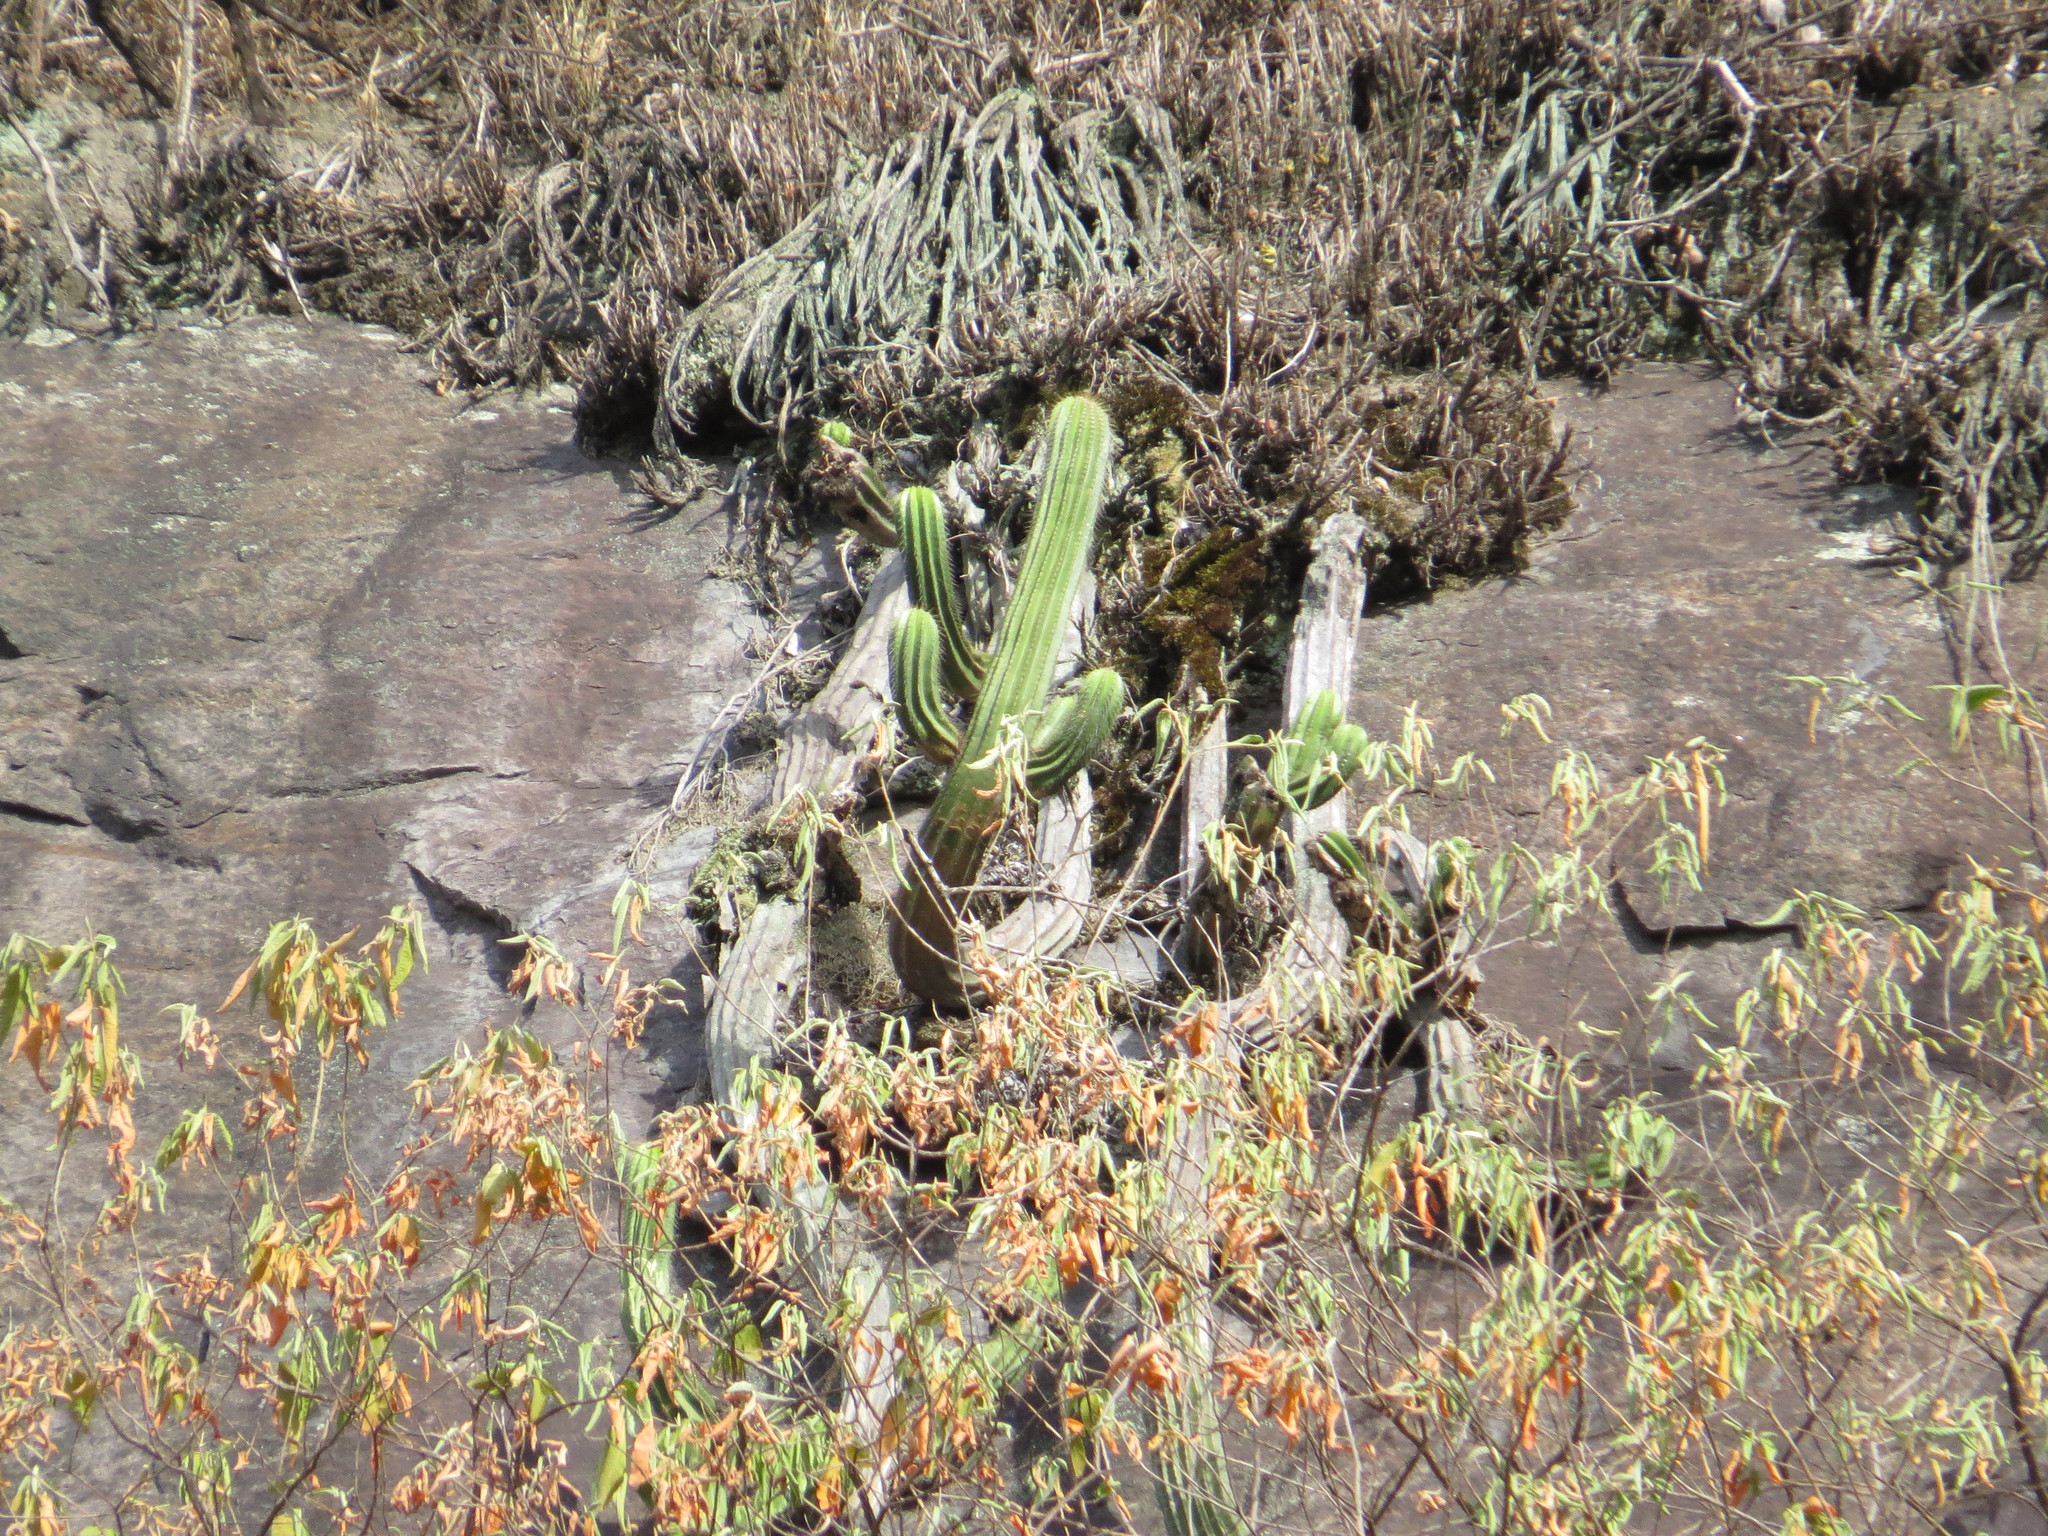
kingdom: Plantae
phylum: Tracheophyta
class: Magnoliopsida
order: Caryophyllales
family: Cactaceae
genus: Coleocephalocereus
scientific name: Coleocephalocereus fluminensis
